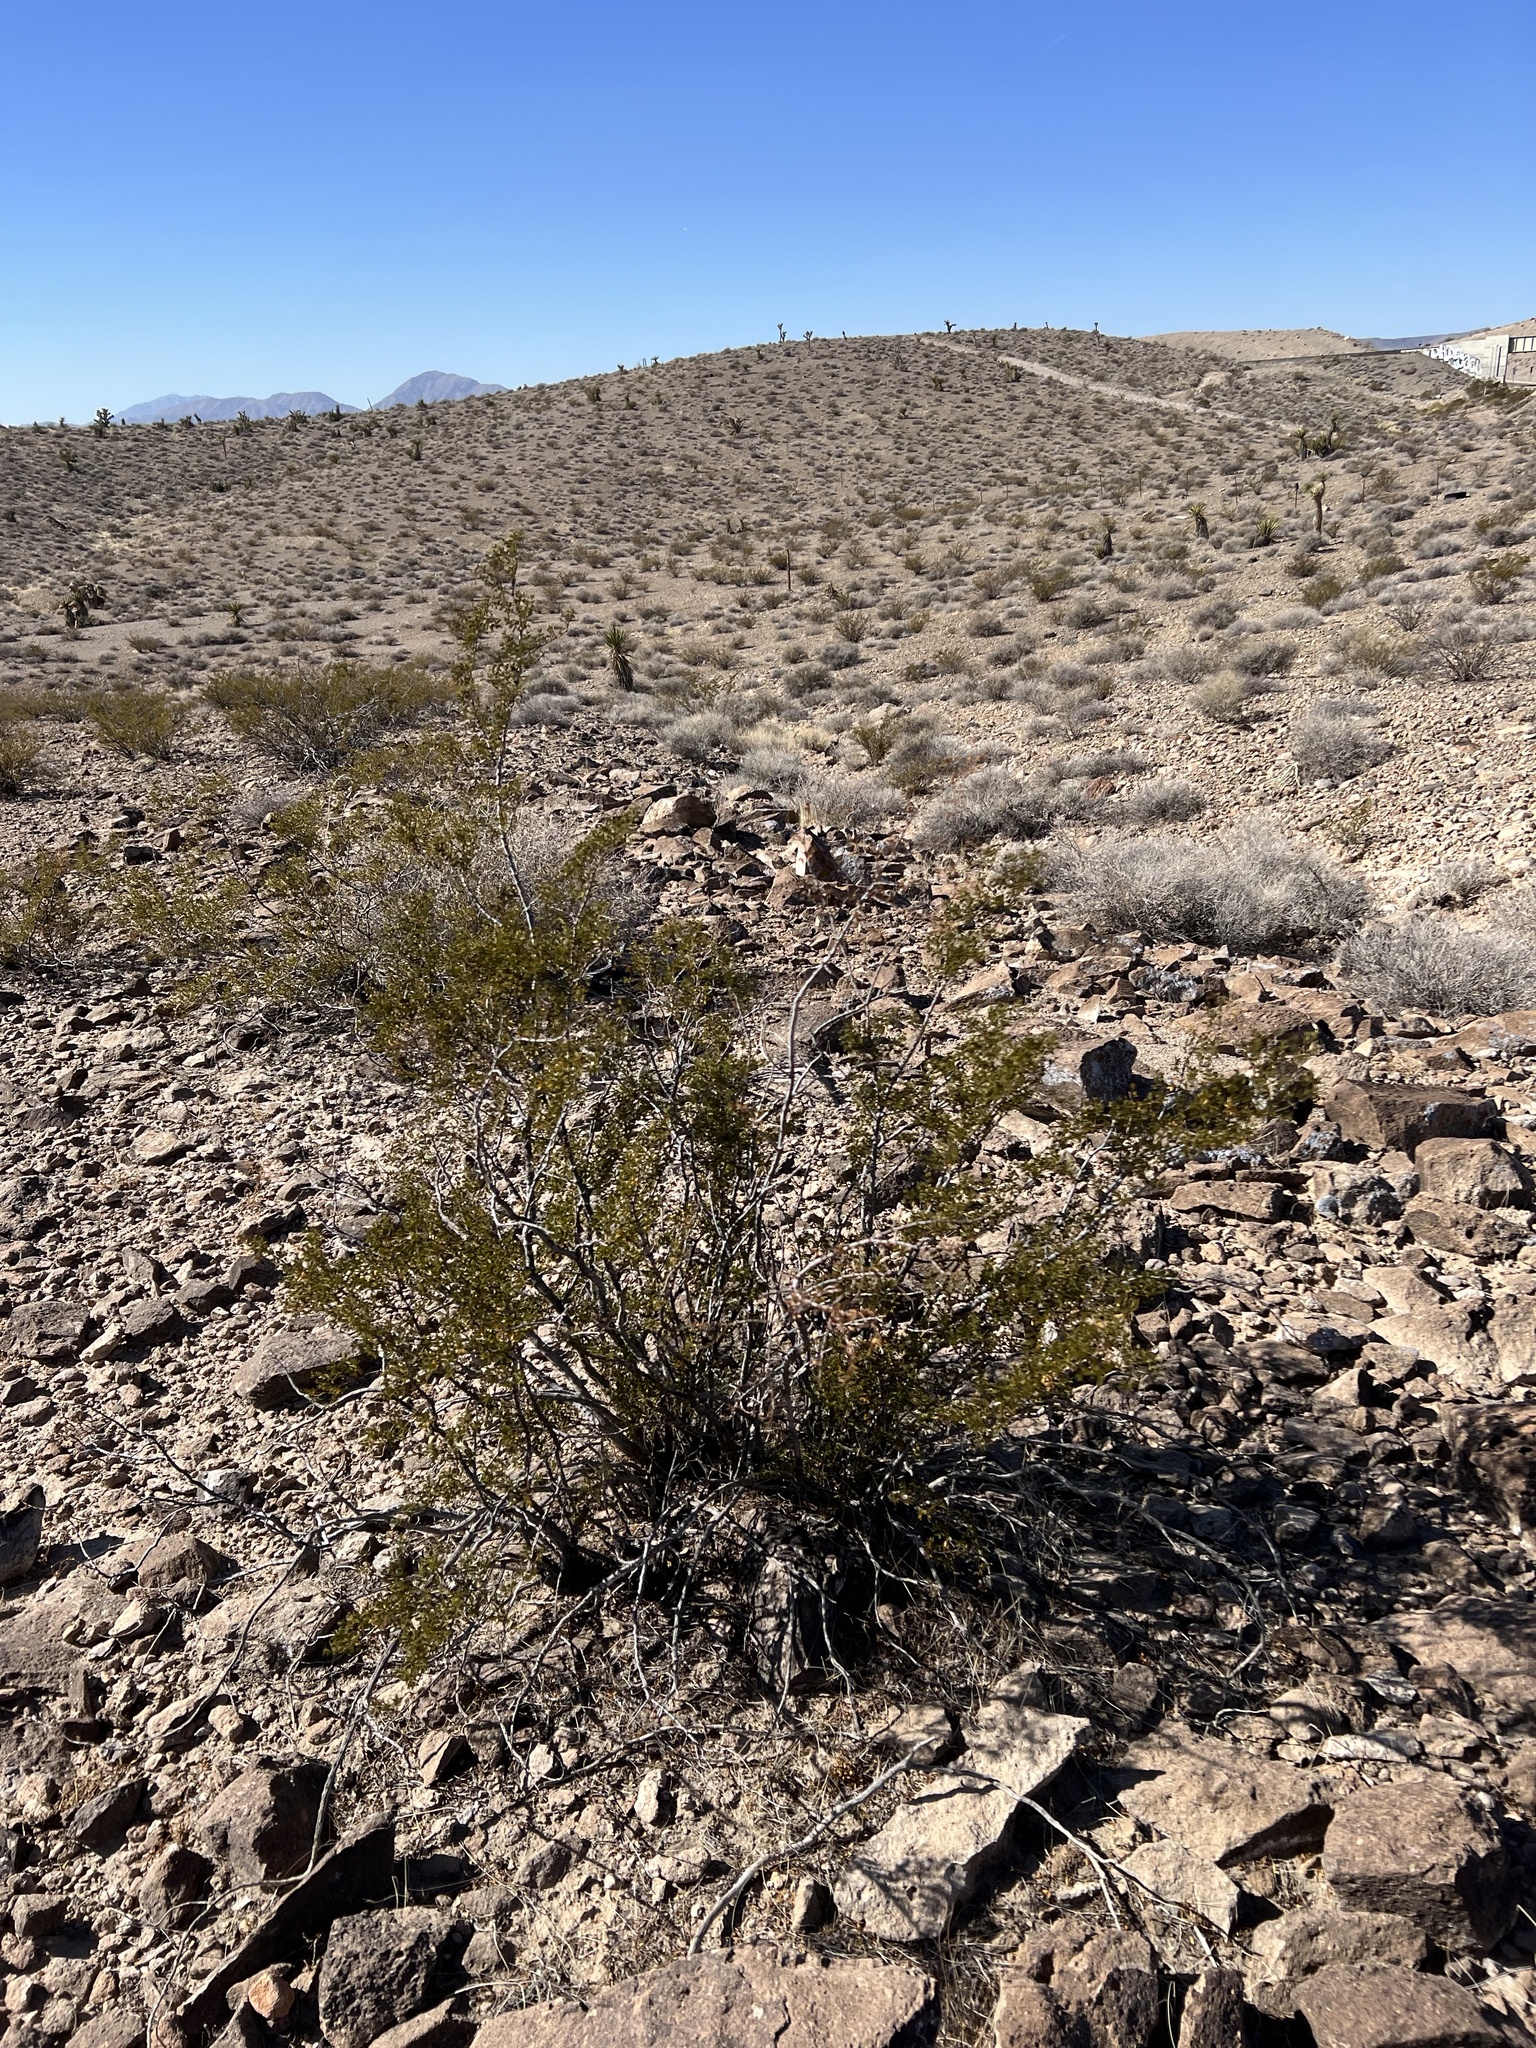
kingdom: Plantae
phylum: Tracheophyta
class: Magnoliopsida
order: Zygophyllales
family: Zygophyllaceae
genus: Larrea
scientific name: Larrea tridentata
